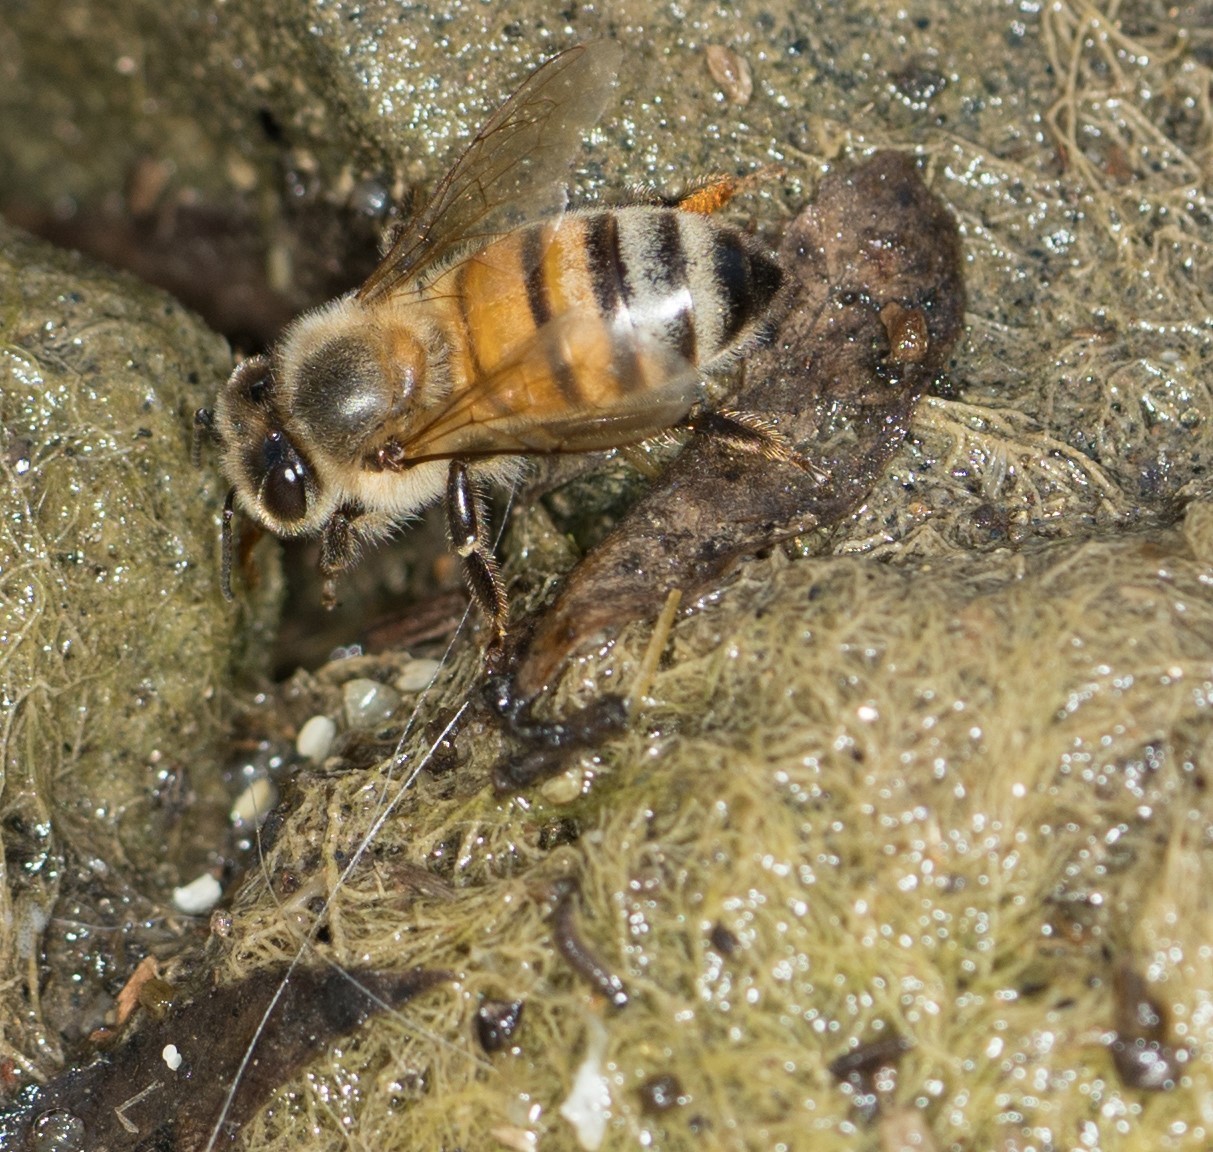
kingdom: Animalia
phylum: Arthropoda
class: Insecta
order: Hymenoptera
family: Apidae
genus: Apis
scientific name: Apis mellifera
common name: Honey bee
